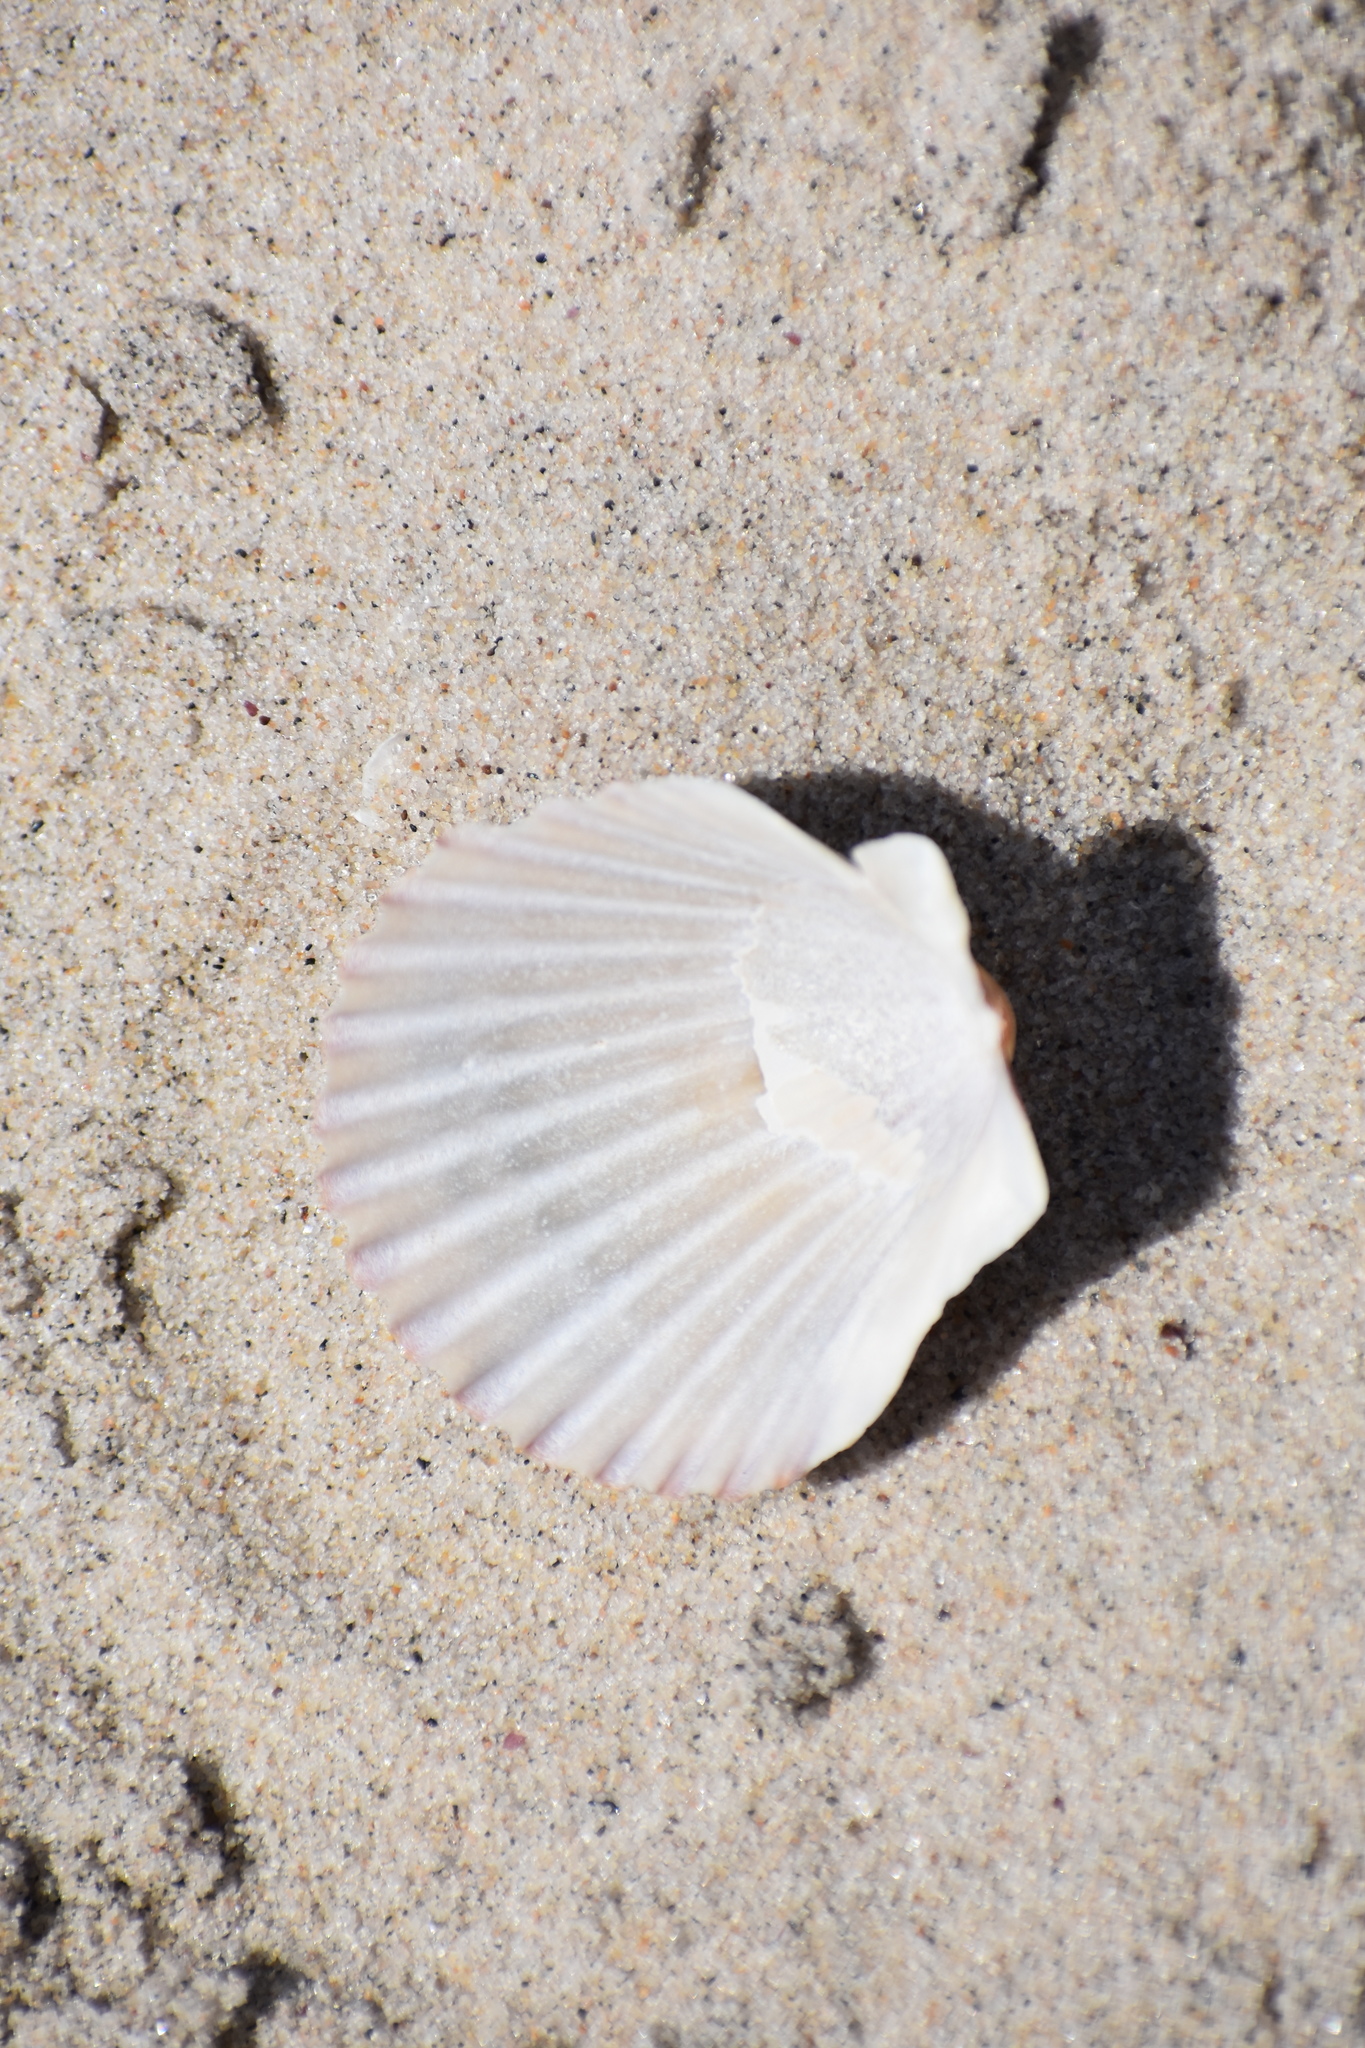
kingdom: Animalia
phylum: Mollusca
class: Bivalvia
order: Pectinida
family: Pectinidae
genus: Argopecten
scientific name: Argopecten irradians
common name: Atlantic bay scallop
